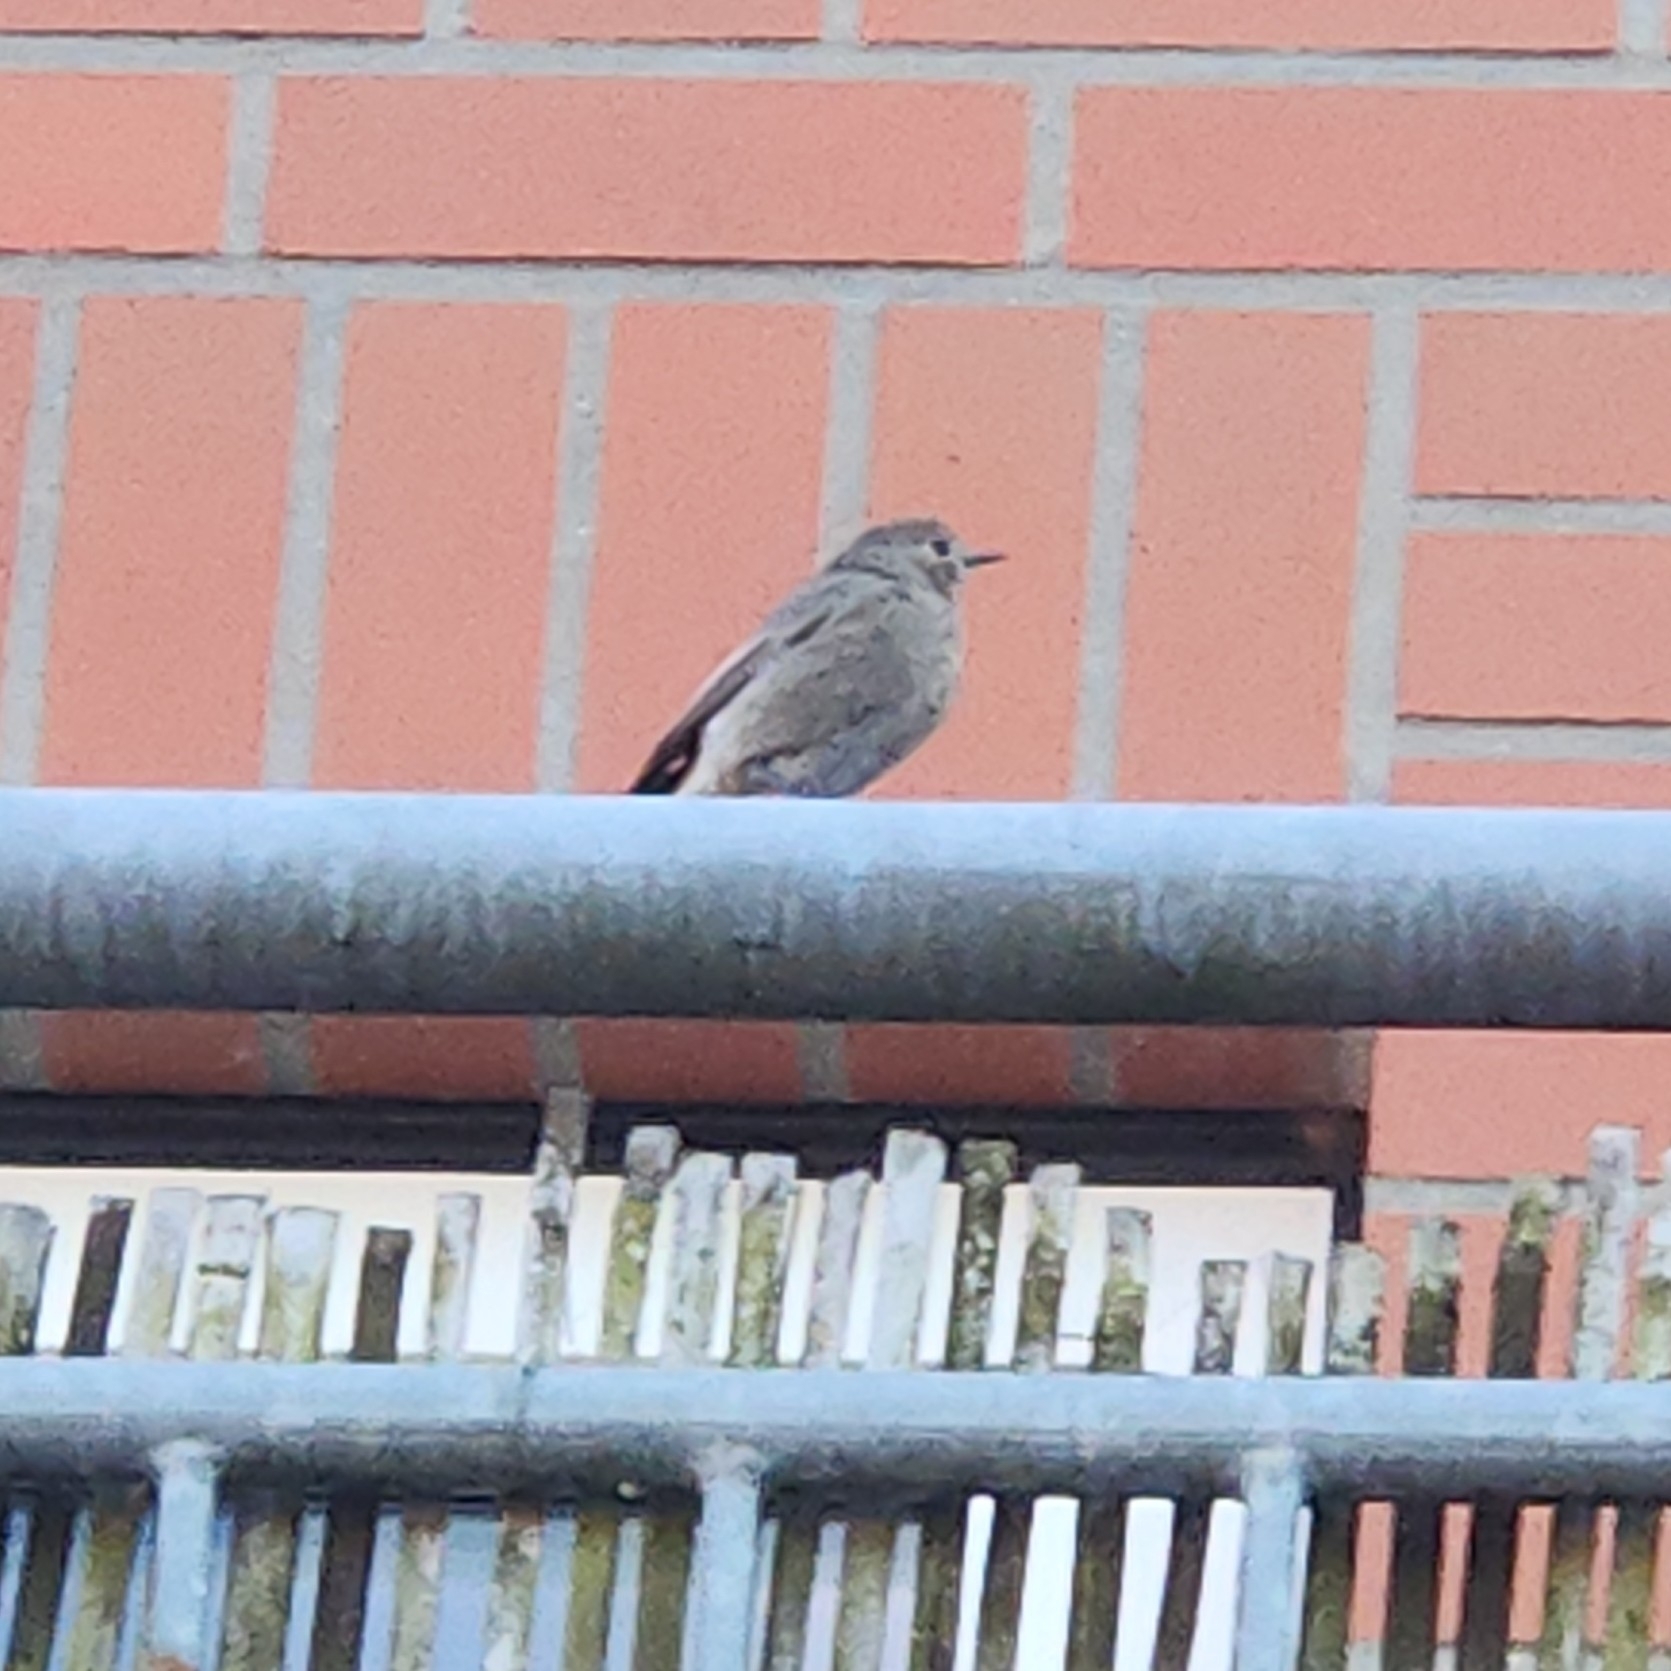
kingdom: Animalia
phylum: Chordata
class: Aves
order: Passeriformes
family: Muscicapidae
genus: Phoenicurus
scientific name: Phoenicurus ochruros
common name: Black redstart
